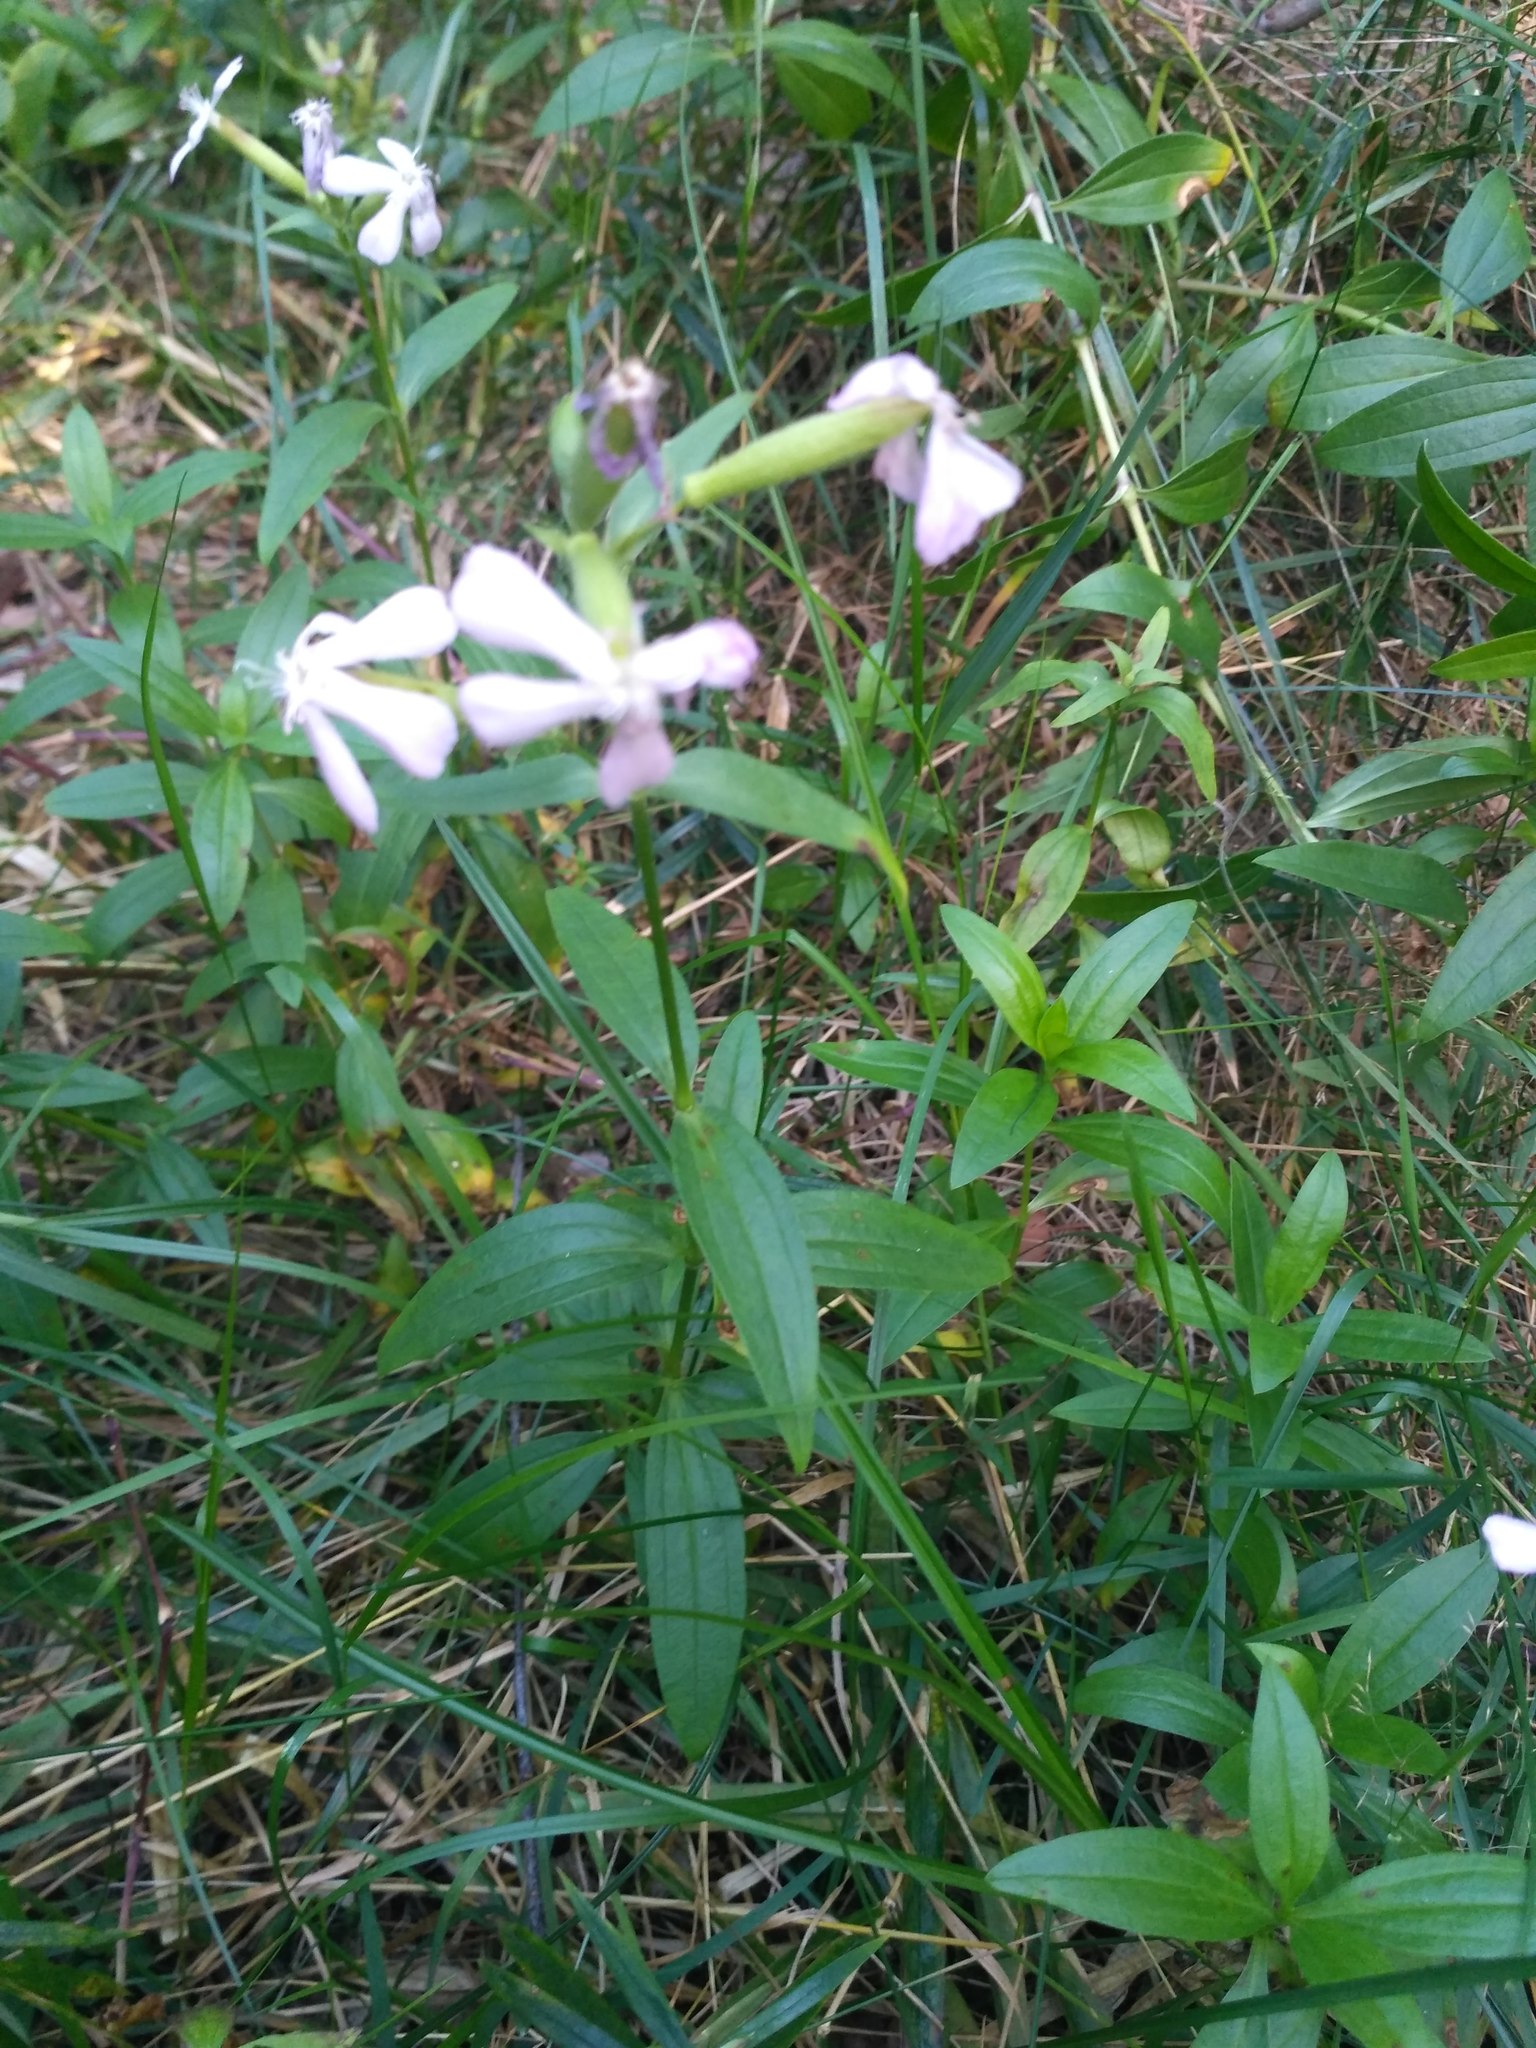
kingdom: Plantae
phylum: Tracheophyta
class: Magnoliopsida
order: Caryophyllales
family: Caryophyllaceae
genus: Saponaria
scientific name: Saponaria officinalis
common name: Soapwort
